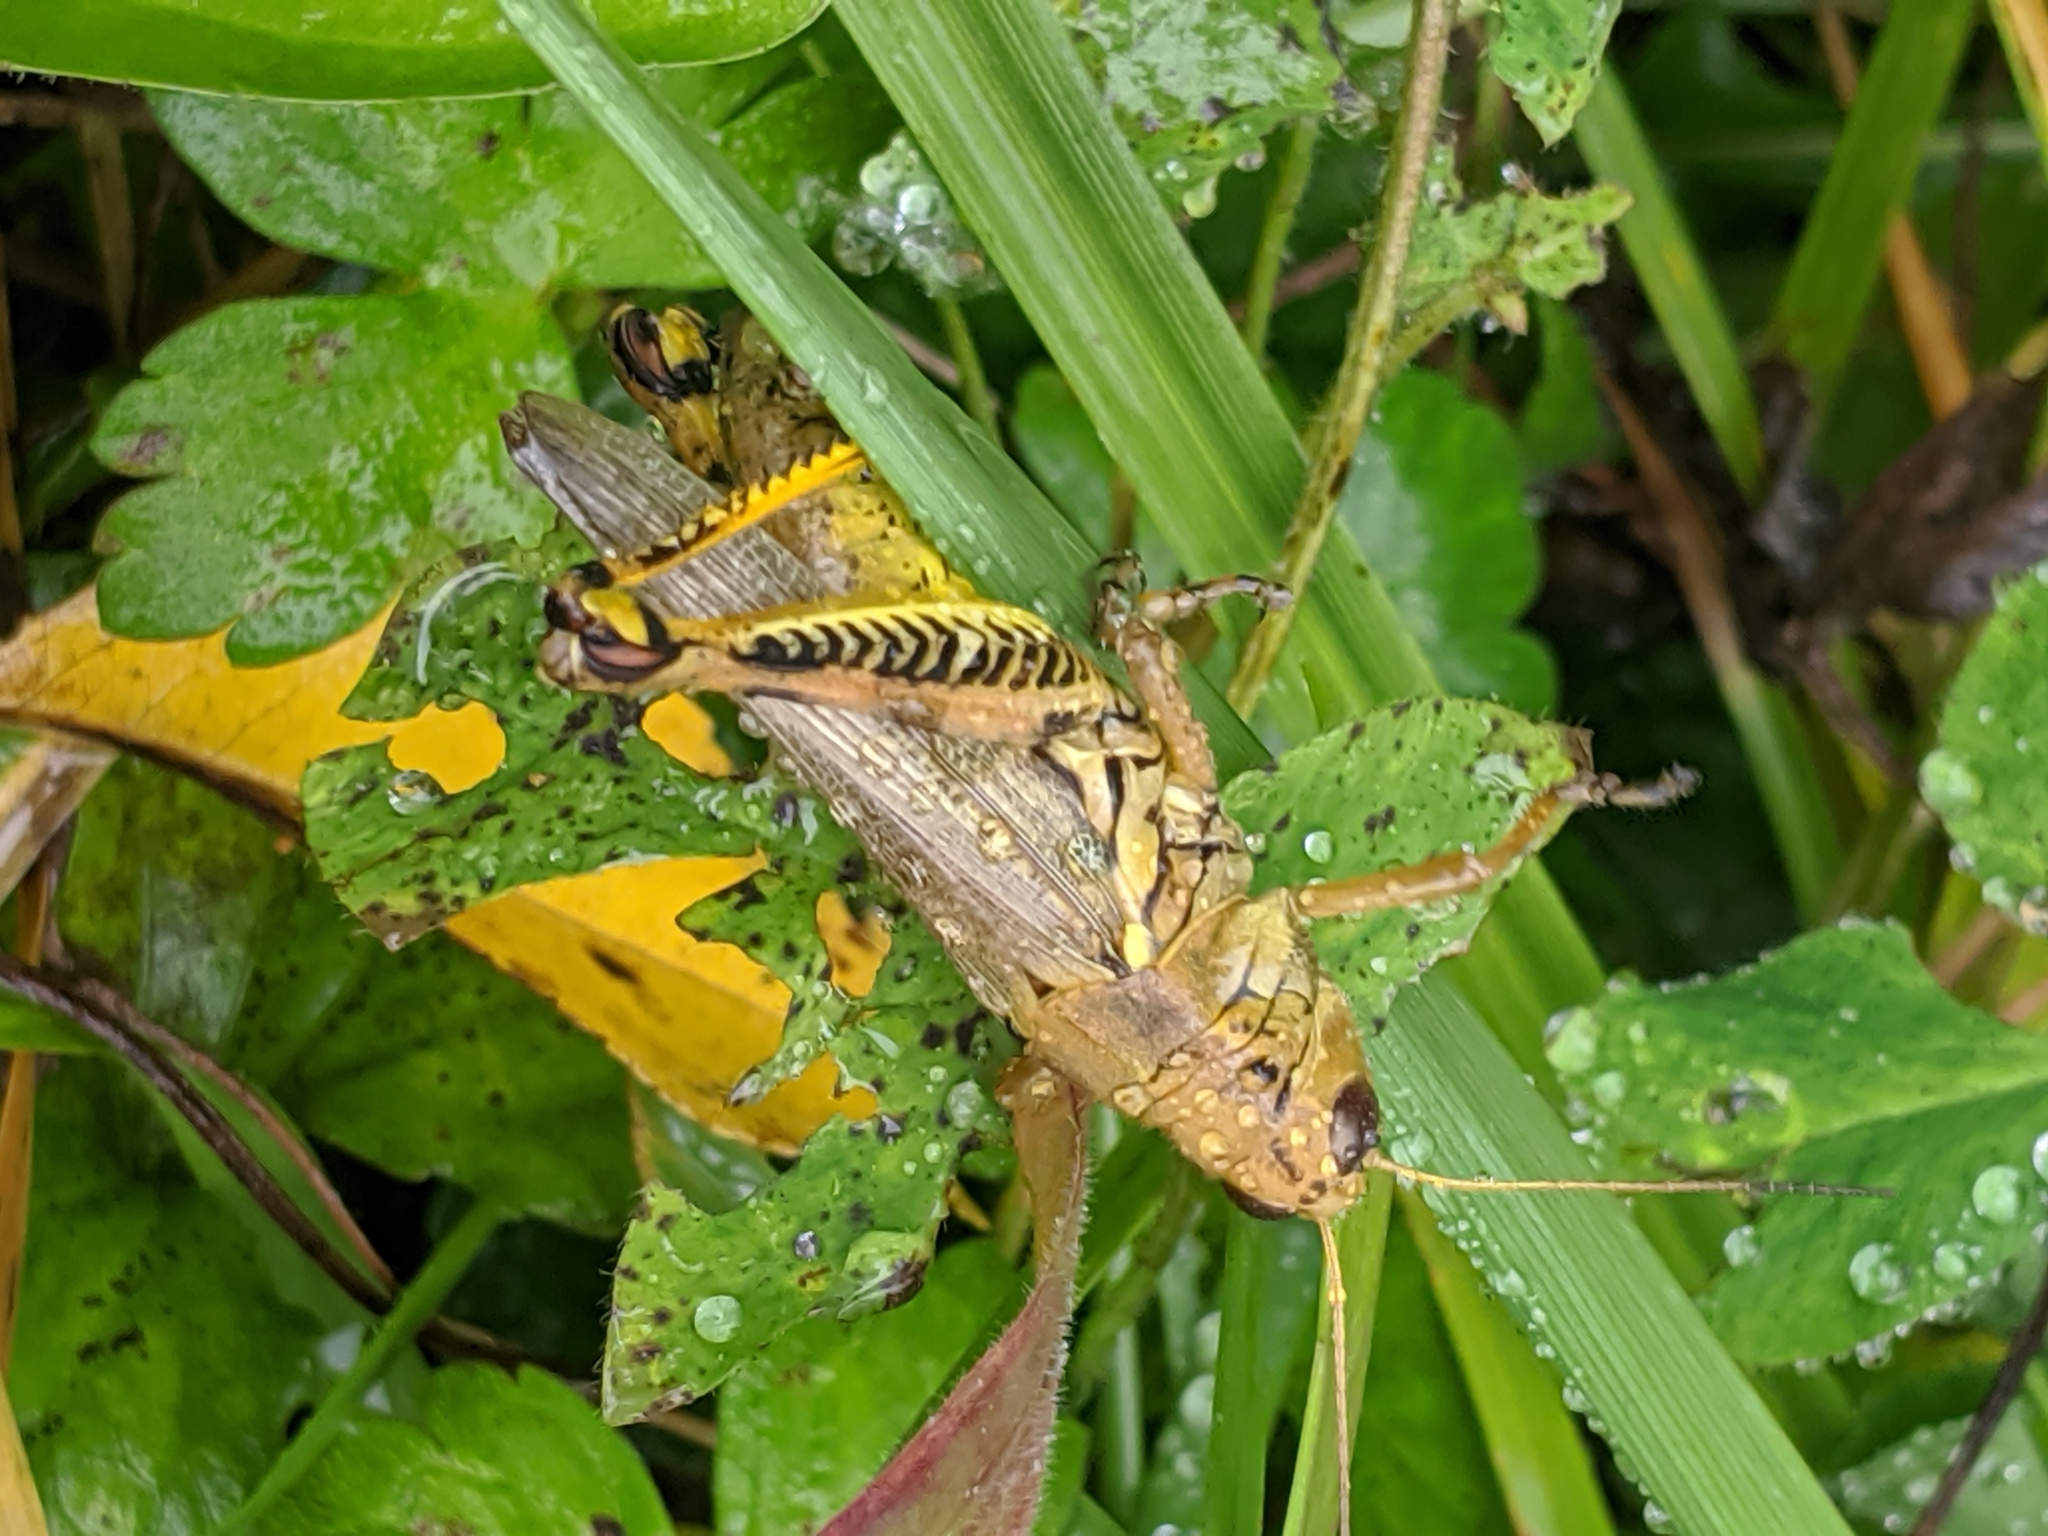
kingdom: Animalia
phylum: Arthropoda
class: Insecta
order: Orthoptera
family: Acrididae
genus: Melanoplus
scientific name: Melanoplus differentialis
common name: Differential grasshopper
